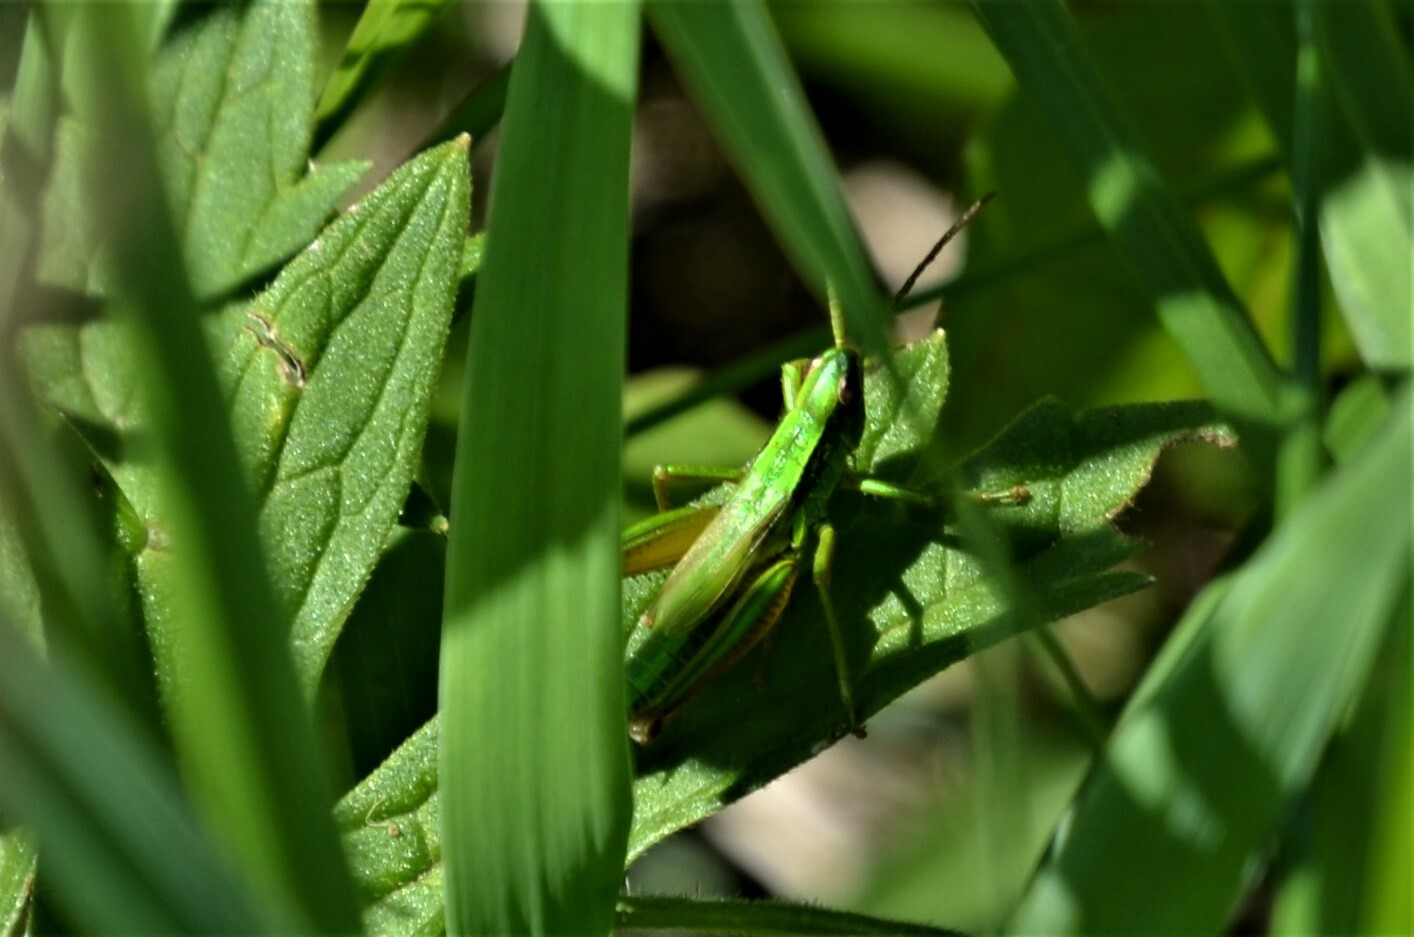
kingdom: Animalia
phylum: Arthropoda
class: Insecta
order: Orthoptera
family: Acrididae
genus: Euthystira
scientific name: Euthystira brachyptera
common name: Small gold grasshopper
